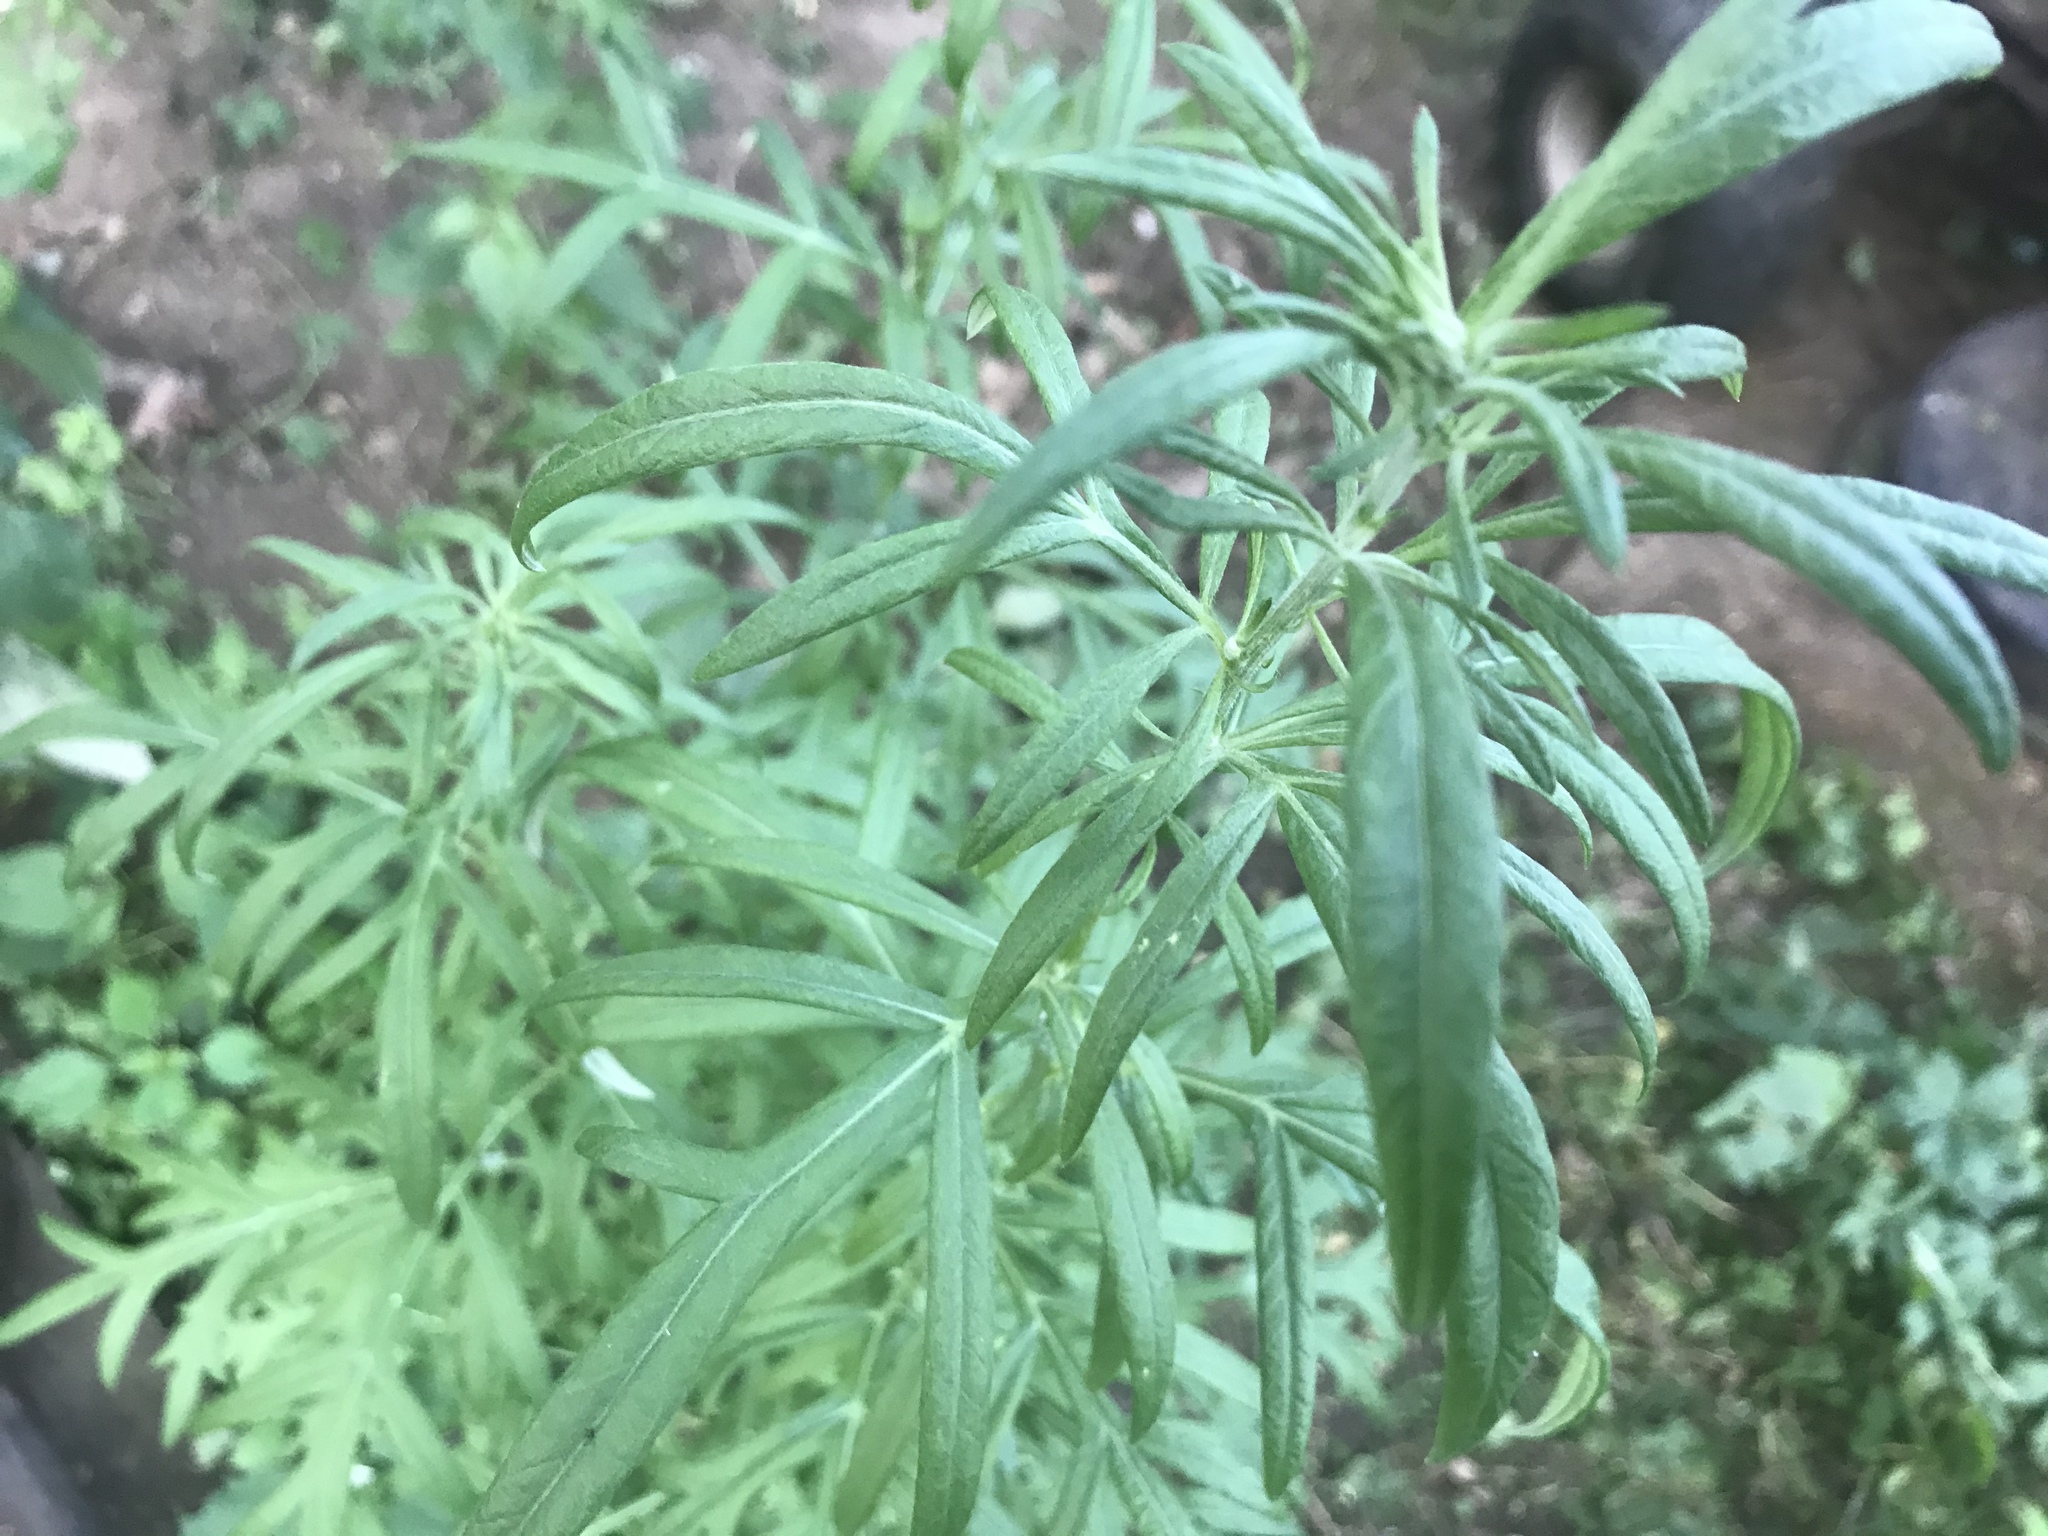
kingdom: Plantae
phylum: Tracheophyta
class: Magnoliopsida
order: Asterales
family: Asteraceae
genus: Artemisia
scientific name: Artemisia vulgaris
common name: Mugwort
